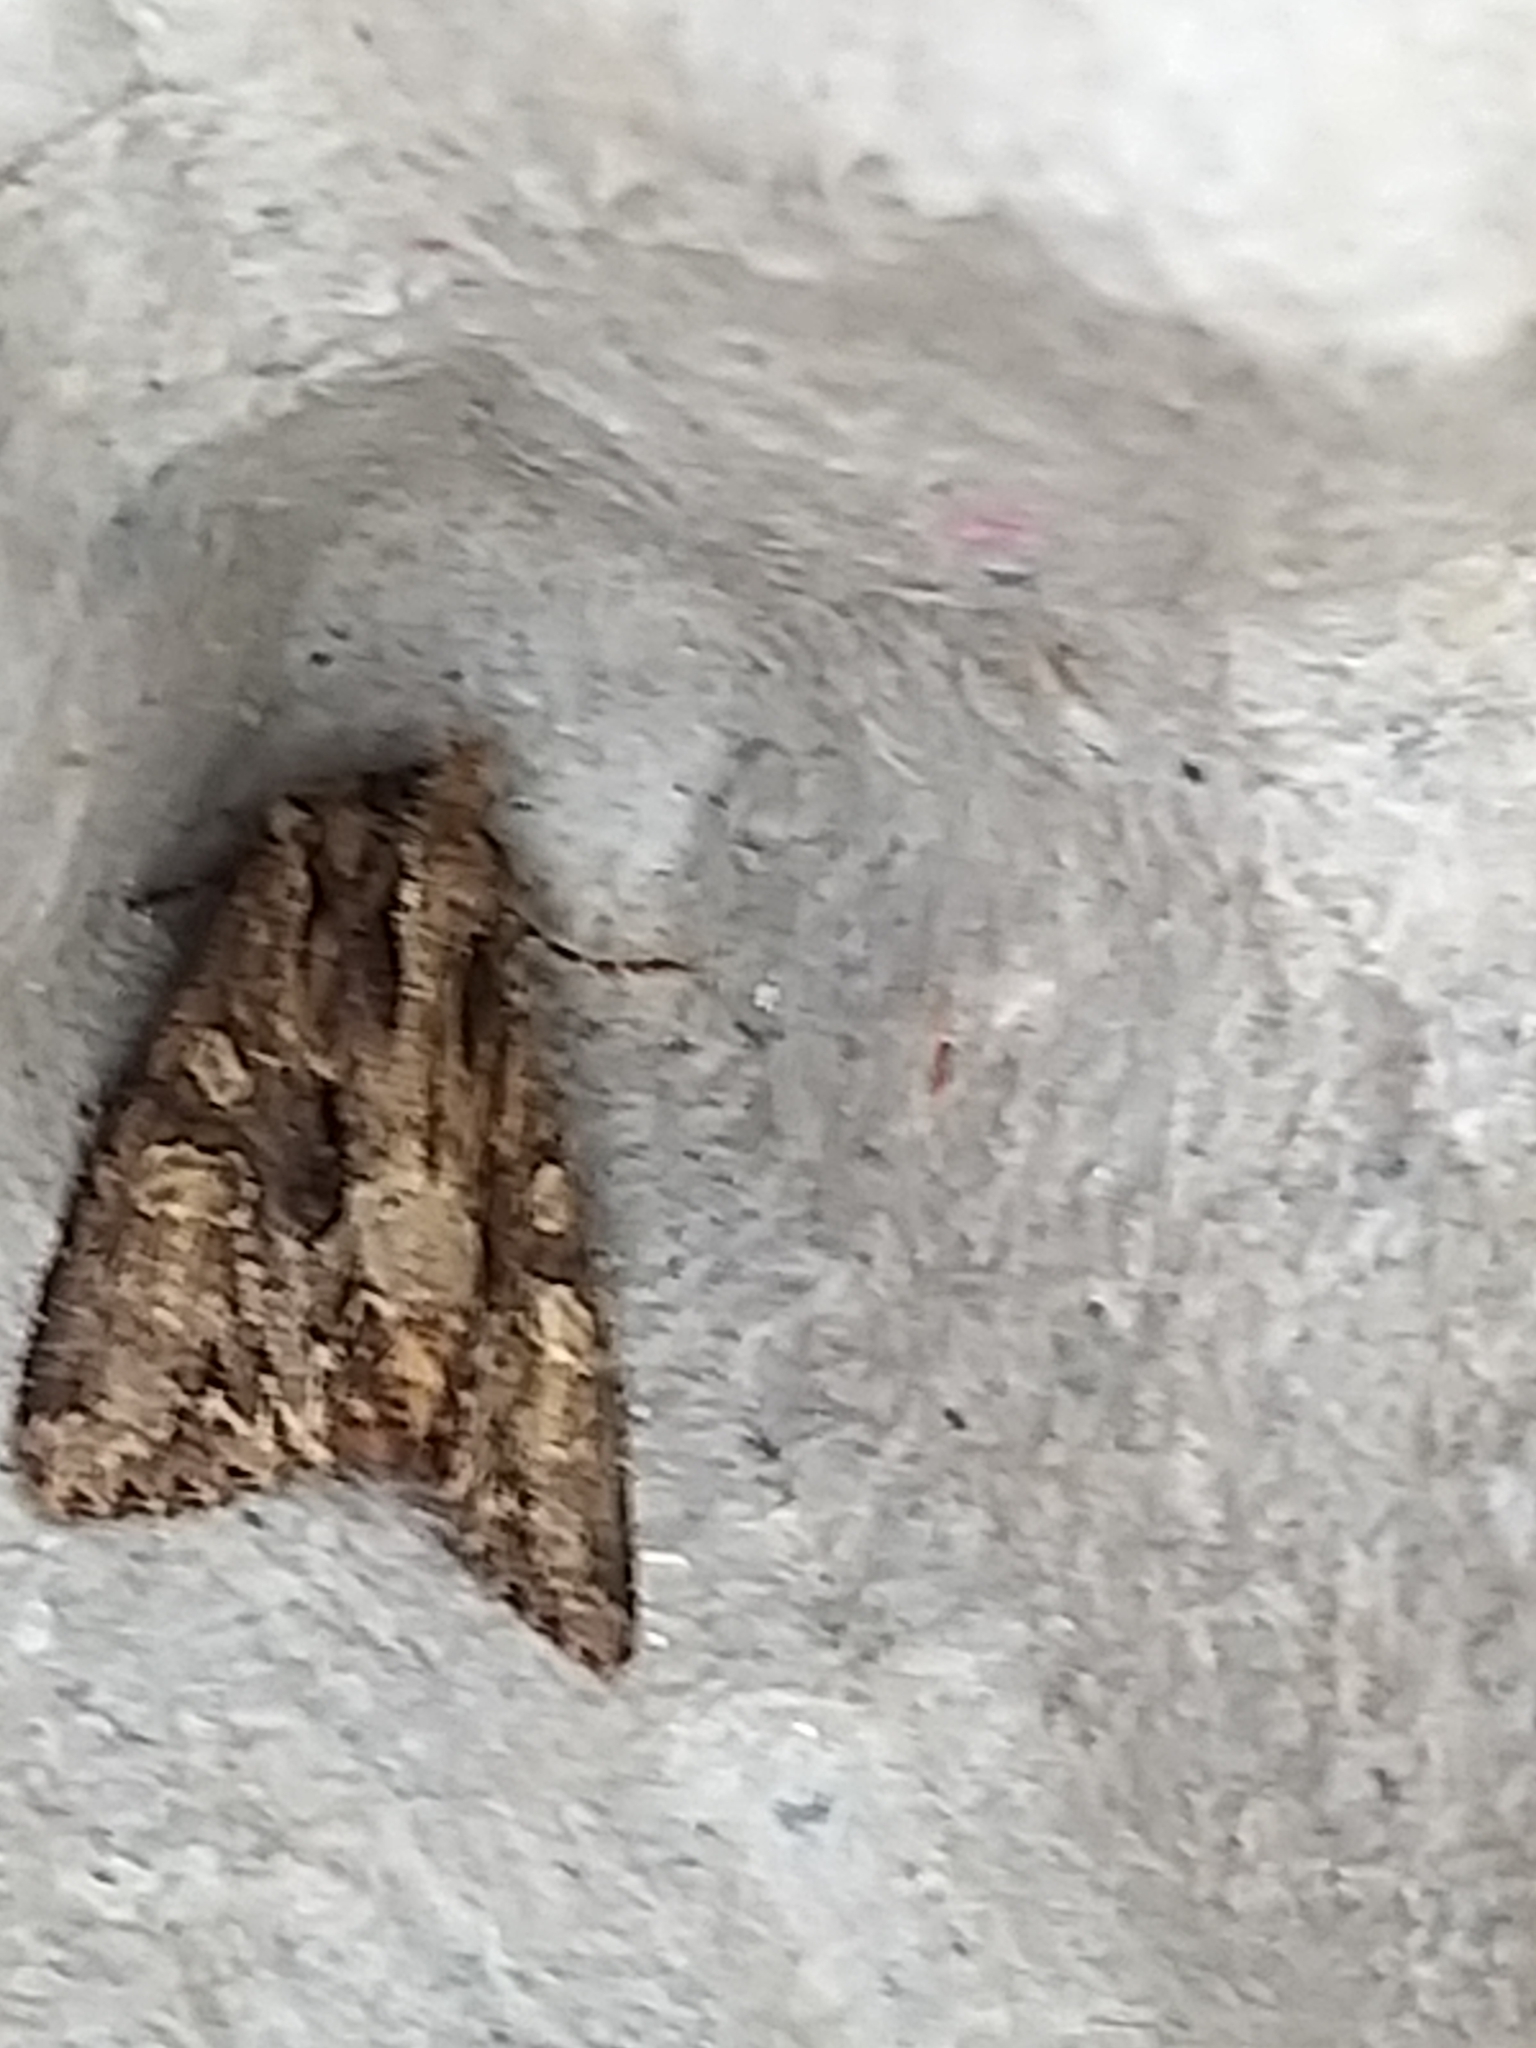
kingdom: Animalia
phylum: Arthropoda
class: Insecta
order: Lepidoptera
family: Noctuidae
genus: Apamea
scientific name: Apamea monoglypha
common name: Dark arches
